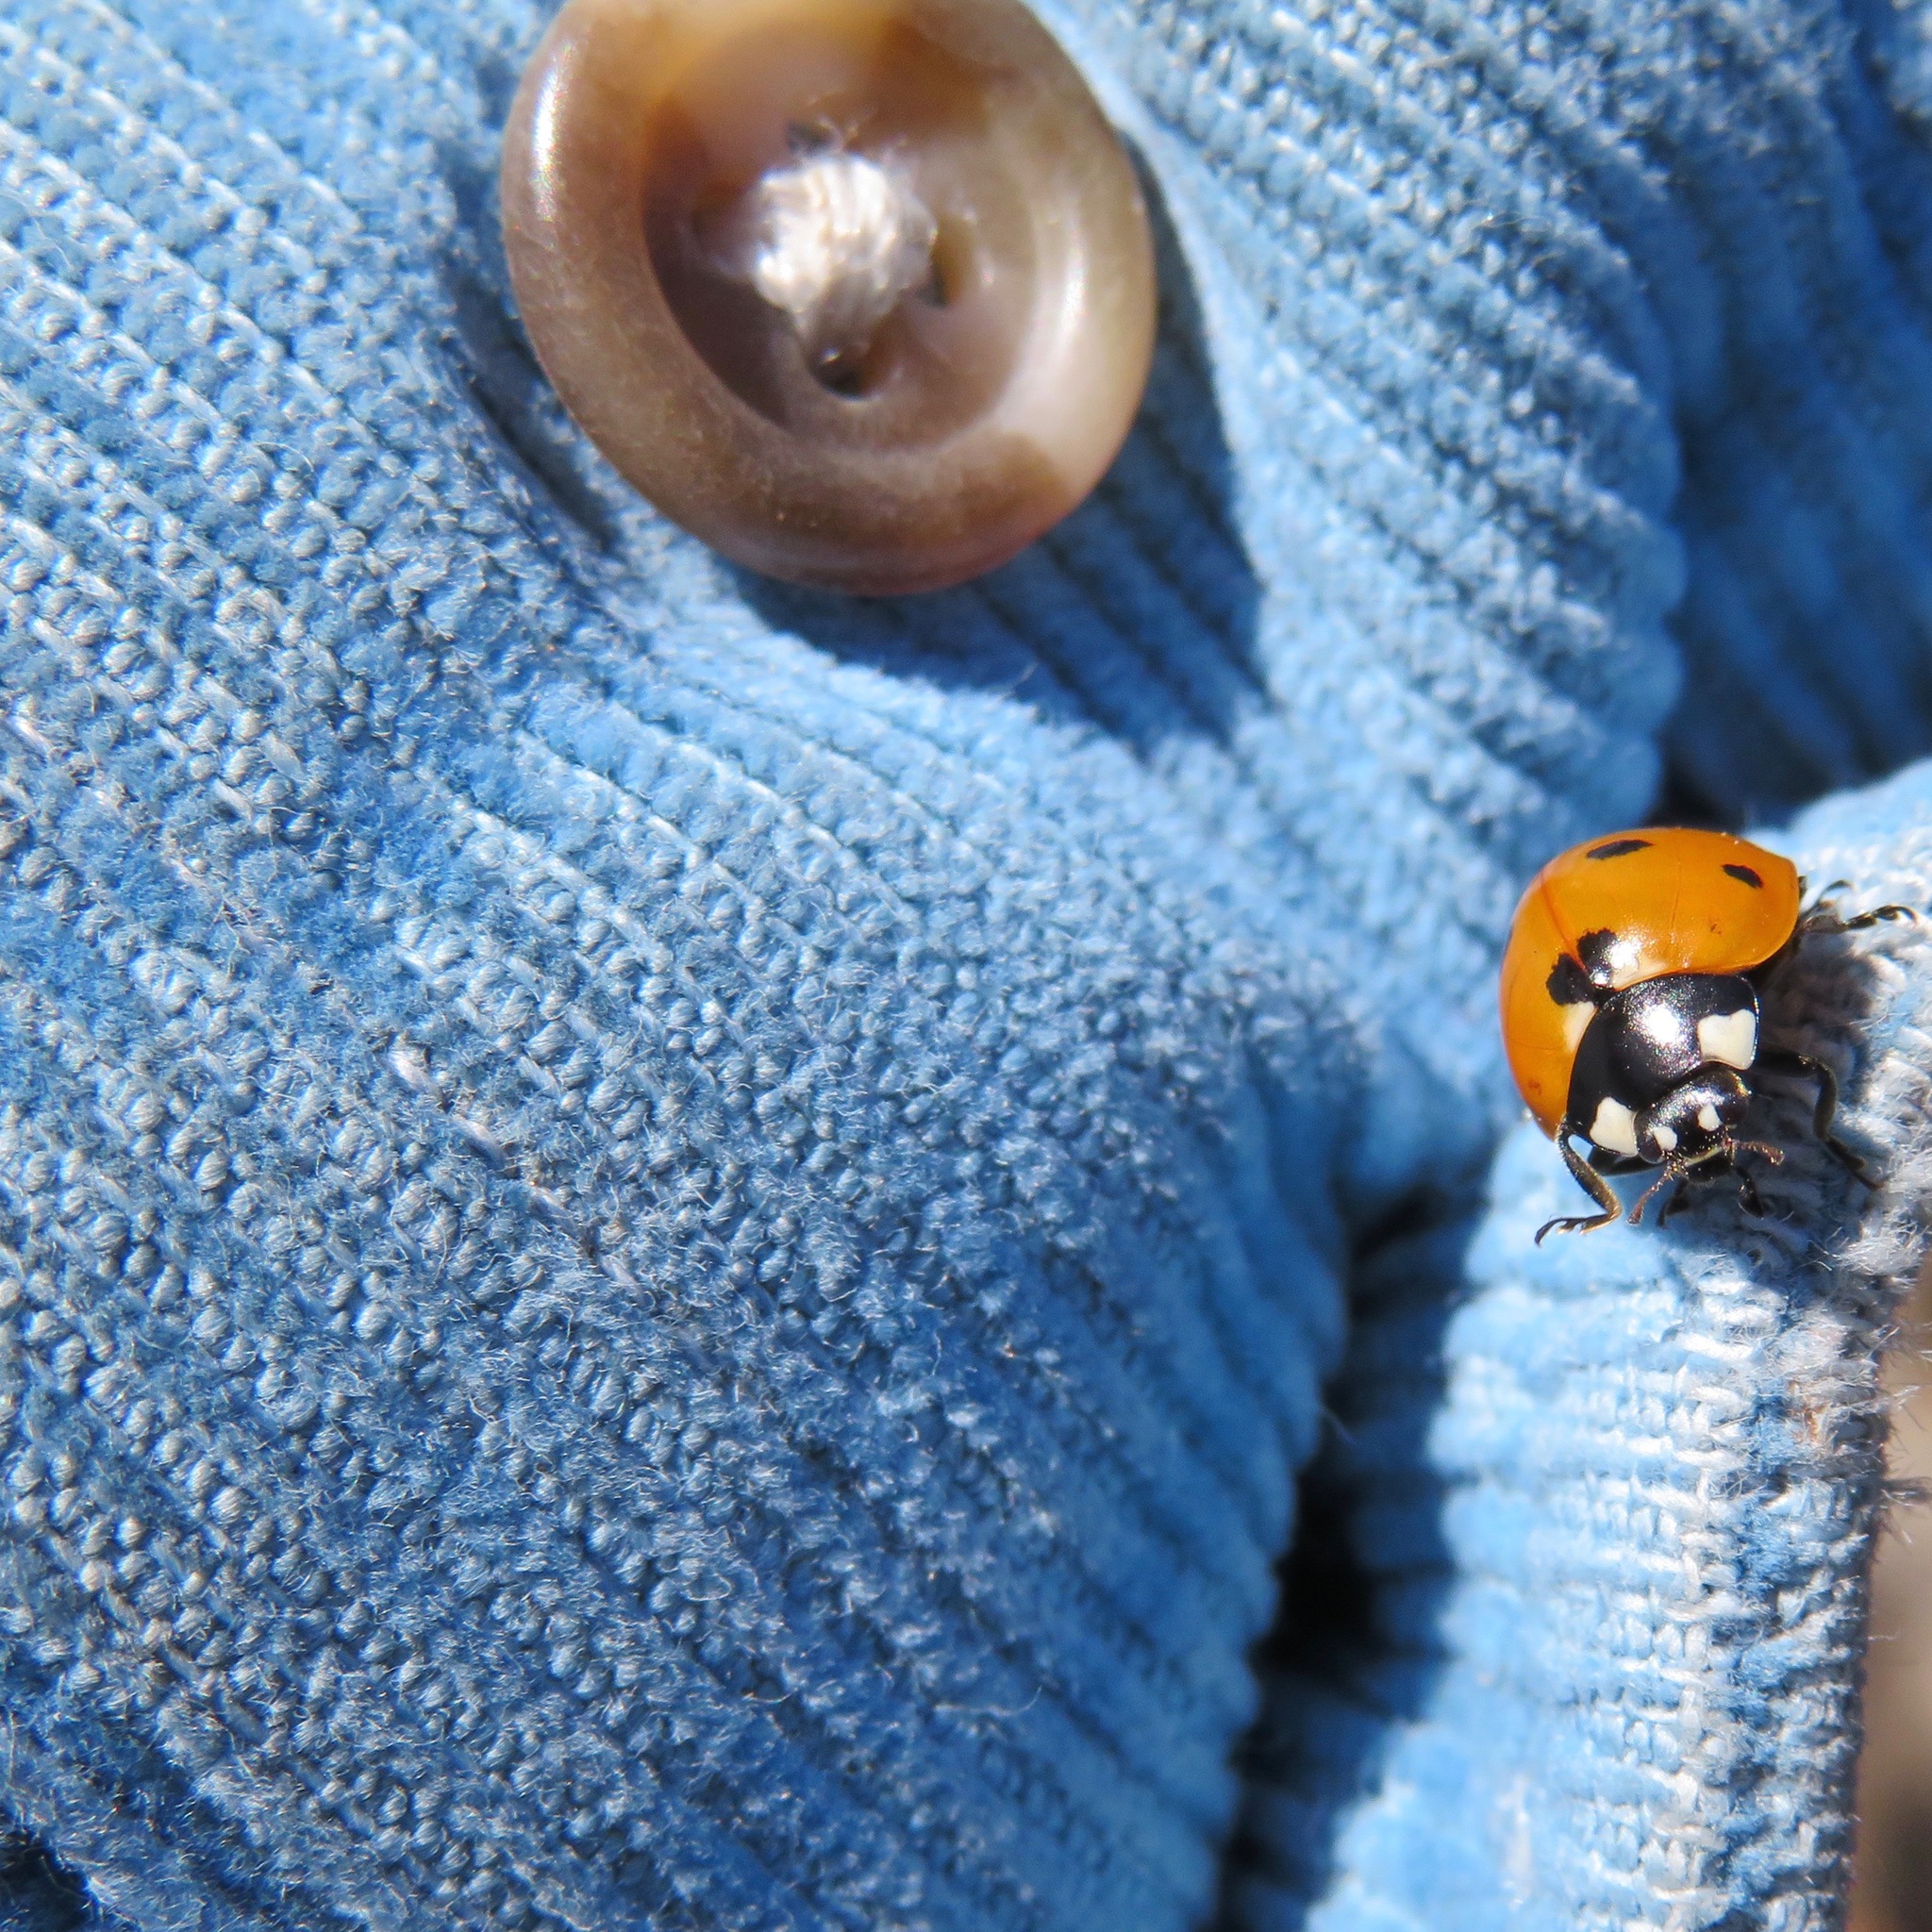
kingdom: Animalia
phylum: Arthropoda
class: Insecta
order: Coleoptera
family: Coccinellidae
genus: Coccinella
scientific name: Coccinella septempunctata
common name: Sevenspotted lady beetle
